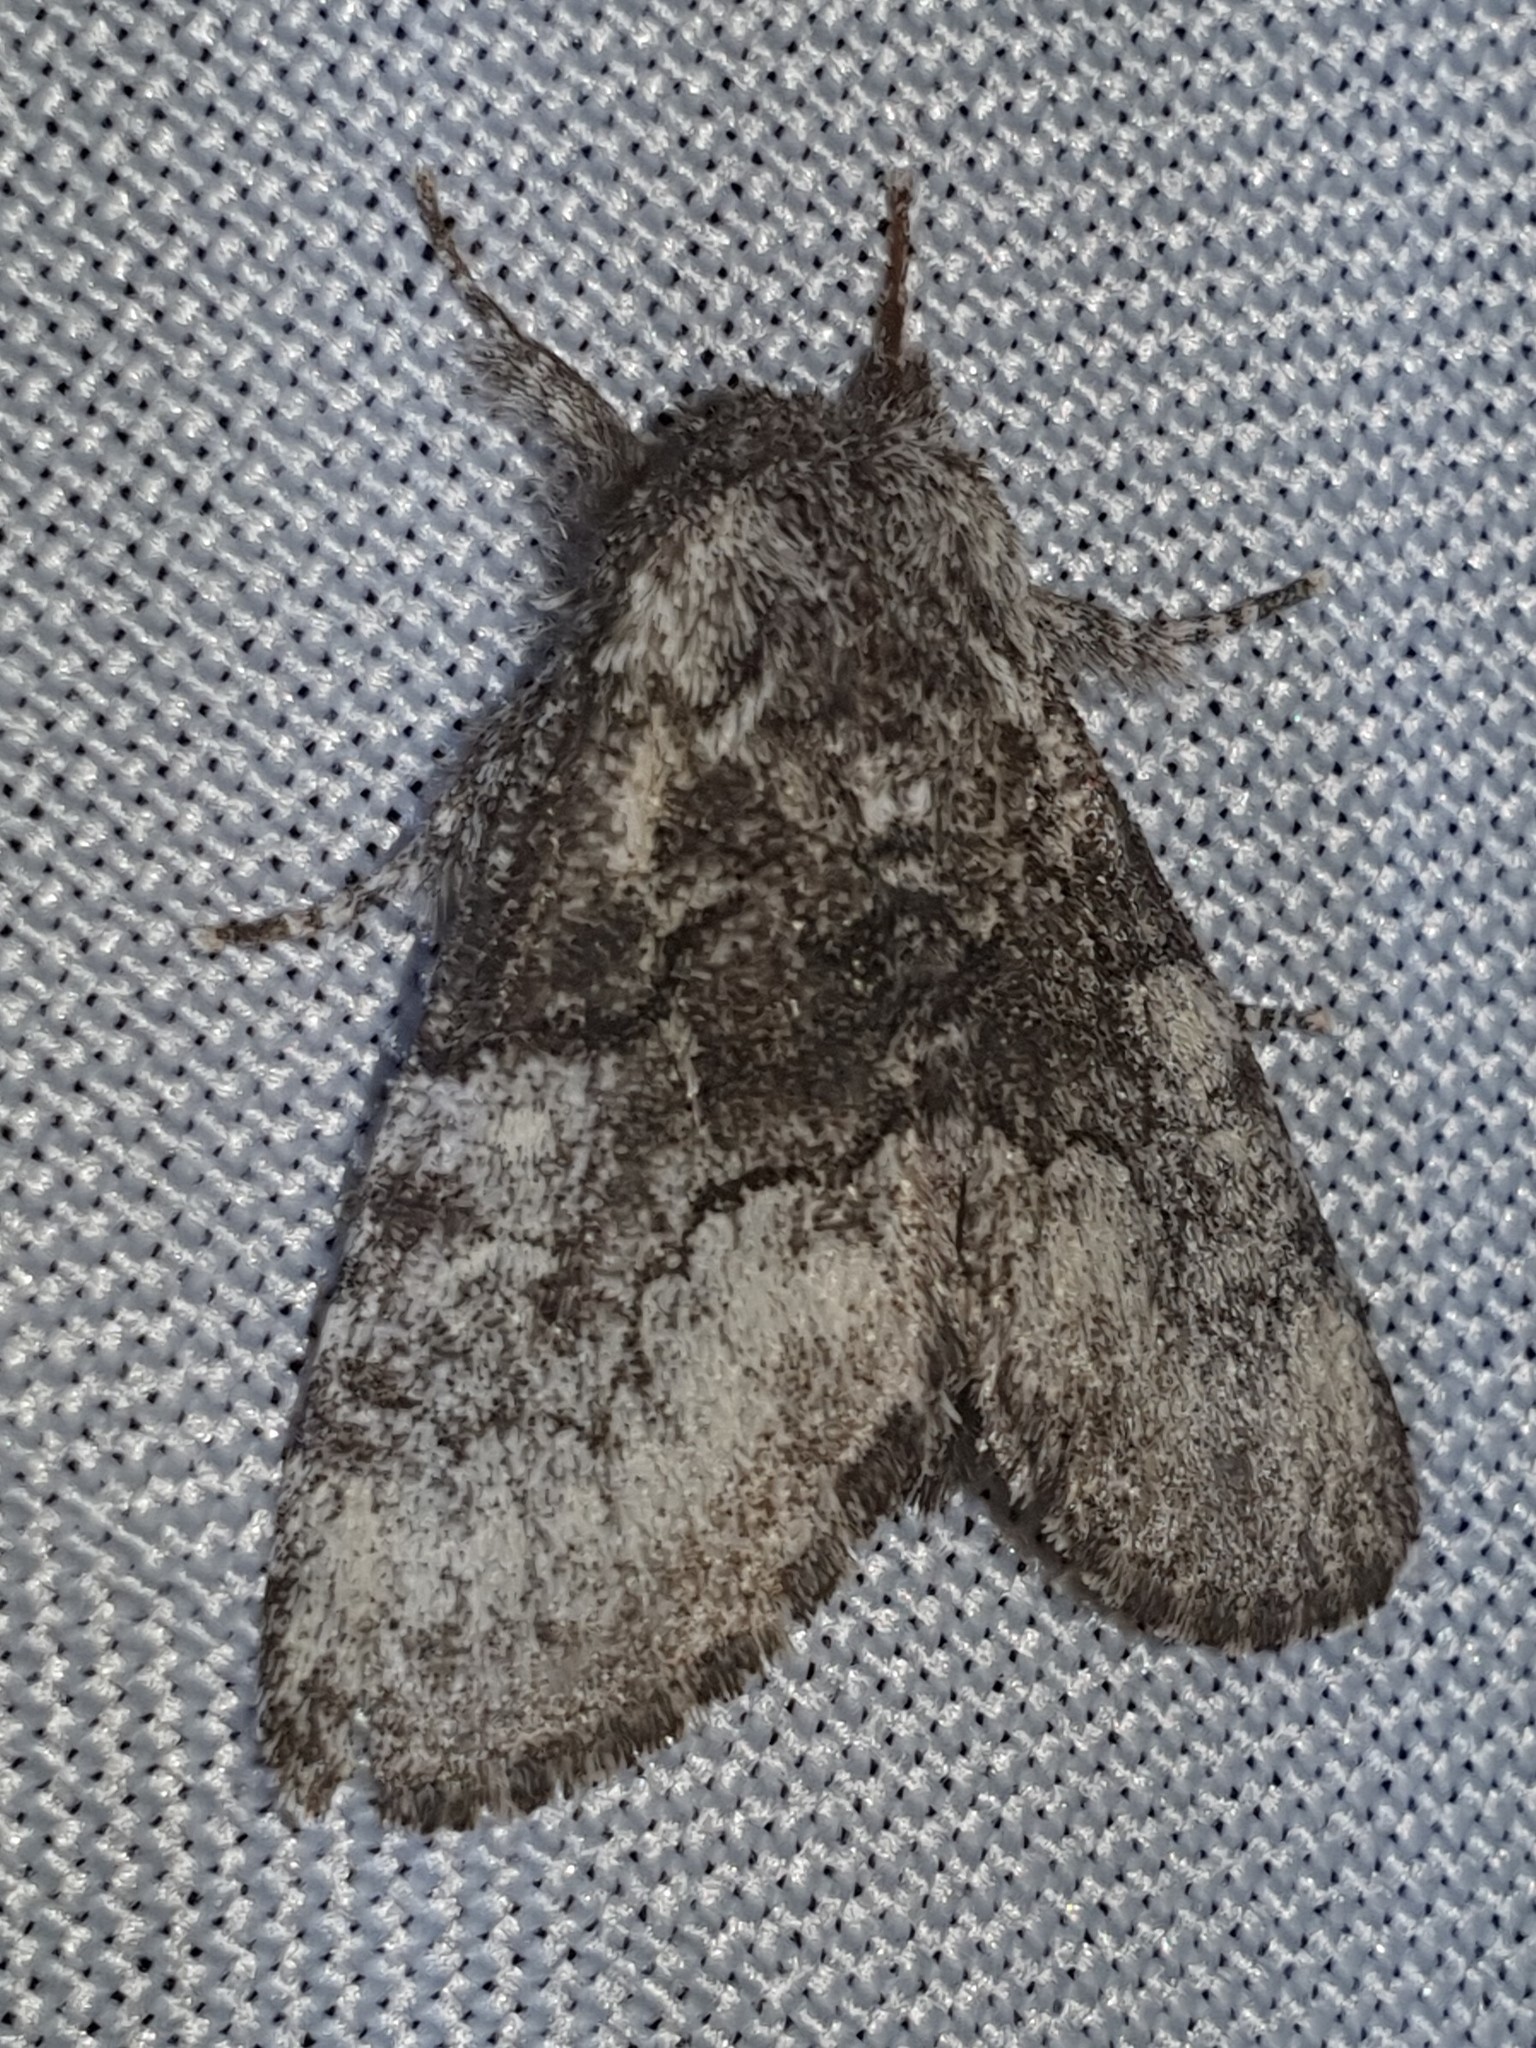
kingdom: Animalia
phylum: Arthropoda
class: Insecta
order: Lepidoptera
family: Noctuidae
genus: Raphia
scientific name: Raphia hybris
